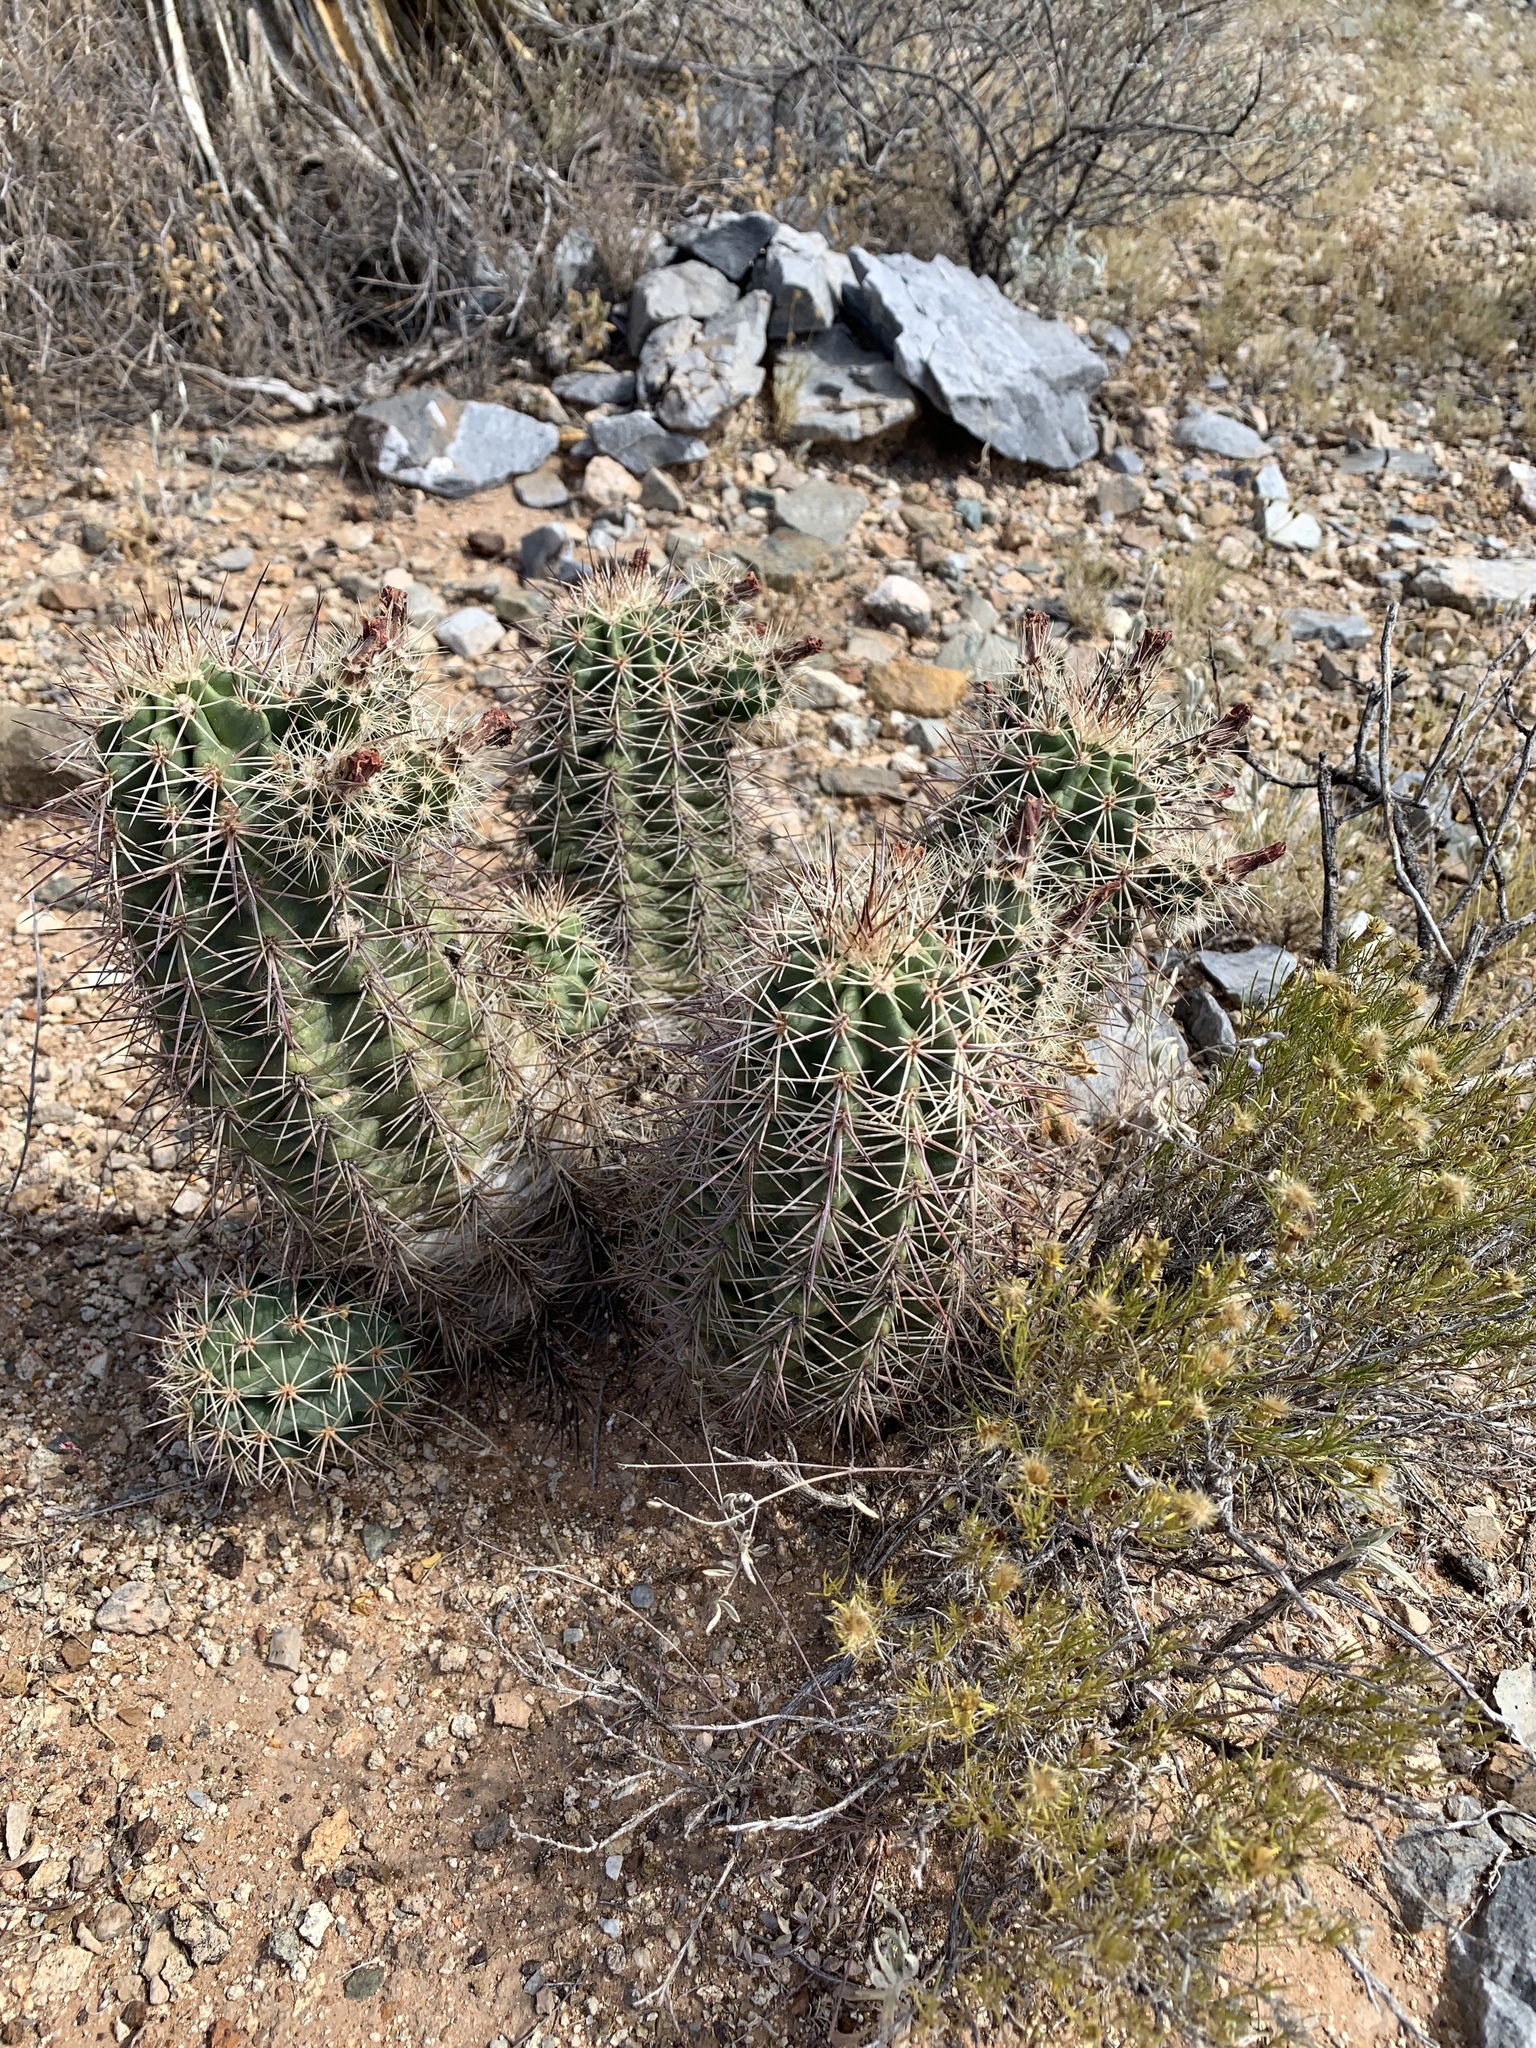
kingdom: Plantae
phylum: Tracheophyta
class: Magnoliopsida
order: Caryophyllales
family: Cactaceae
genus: Echinocereus
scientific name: Echinocereus coccineus
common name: Scarlet hedgehog cactus
